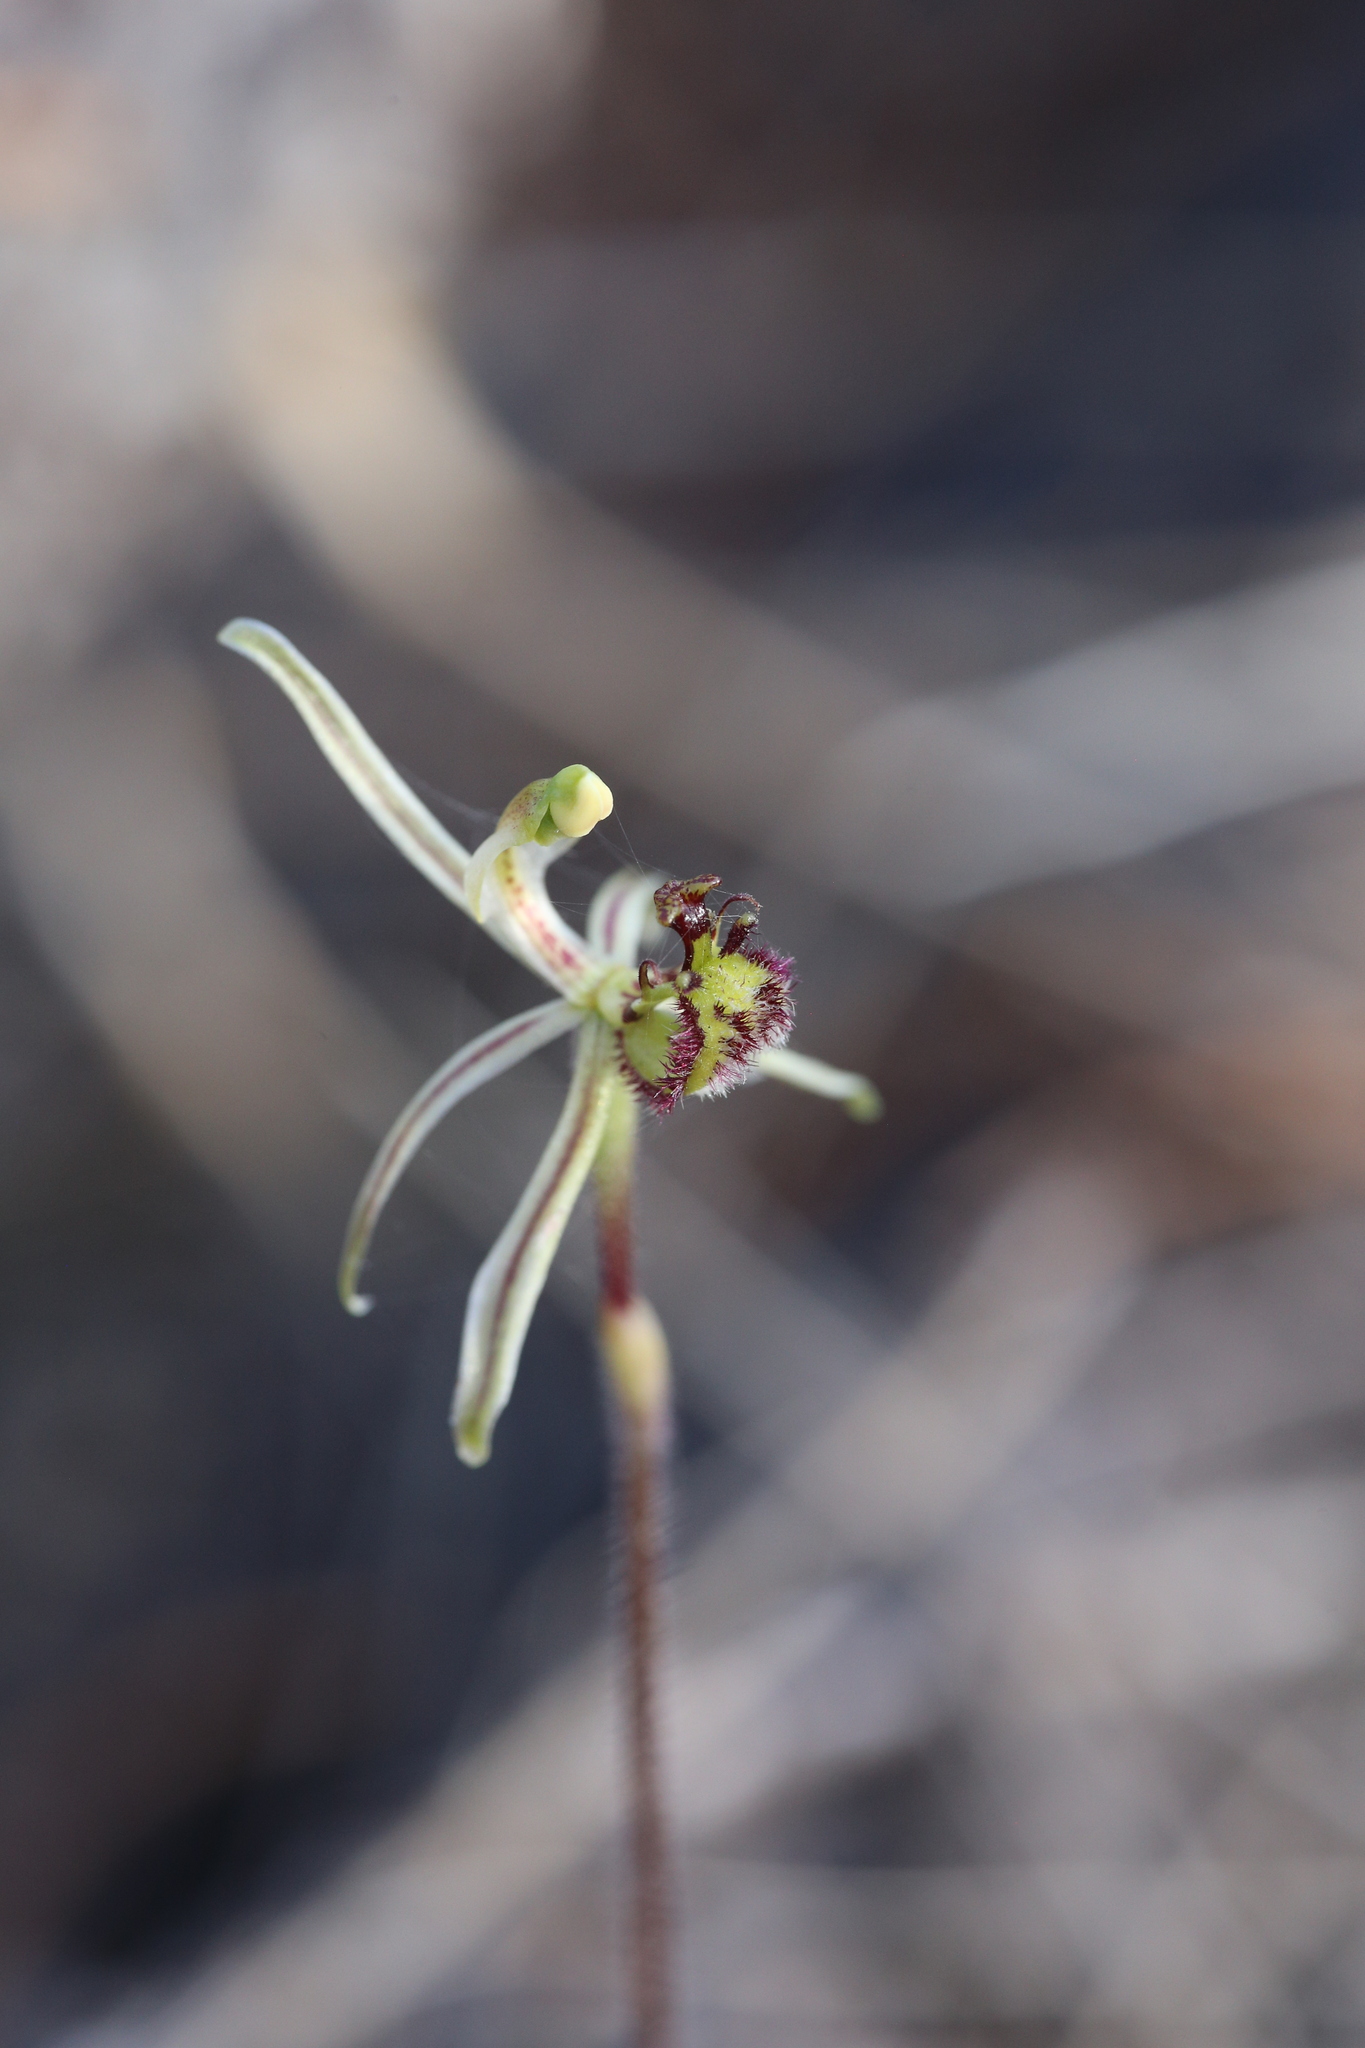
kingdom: Plantae
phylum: Tracheophyta
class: Liliopsida
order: Asparagales
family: Orchidaceae
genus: Caladenia
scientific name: Caladenia barbarossa
